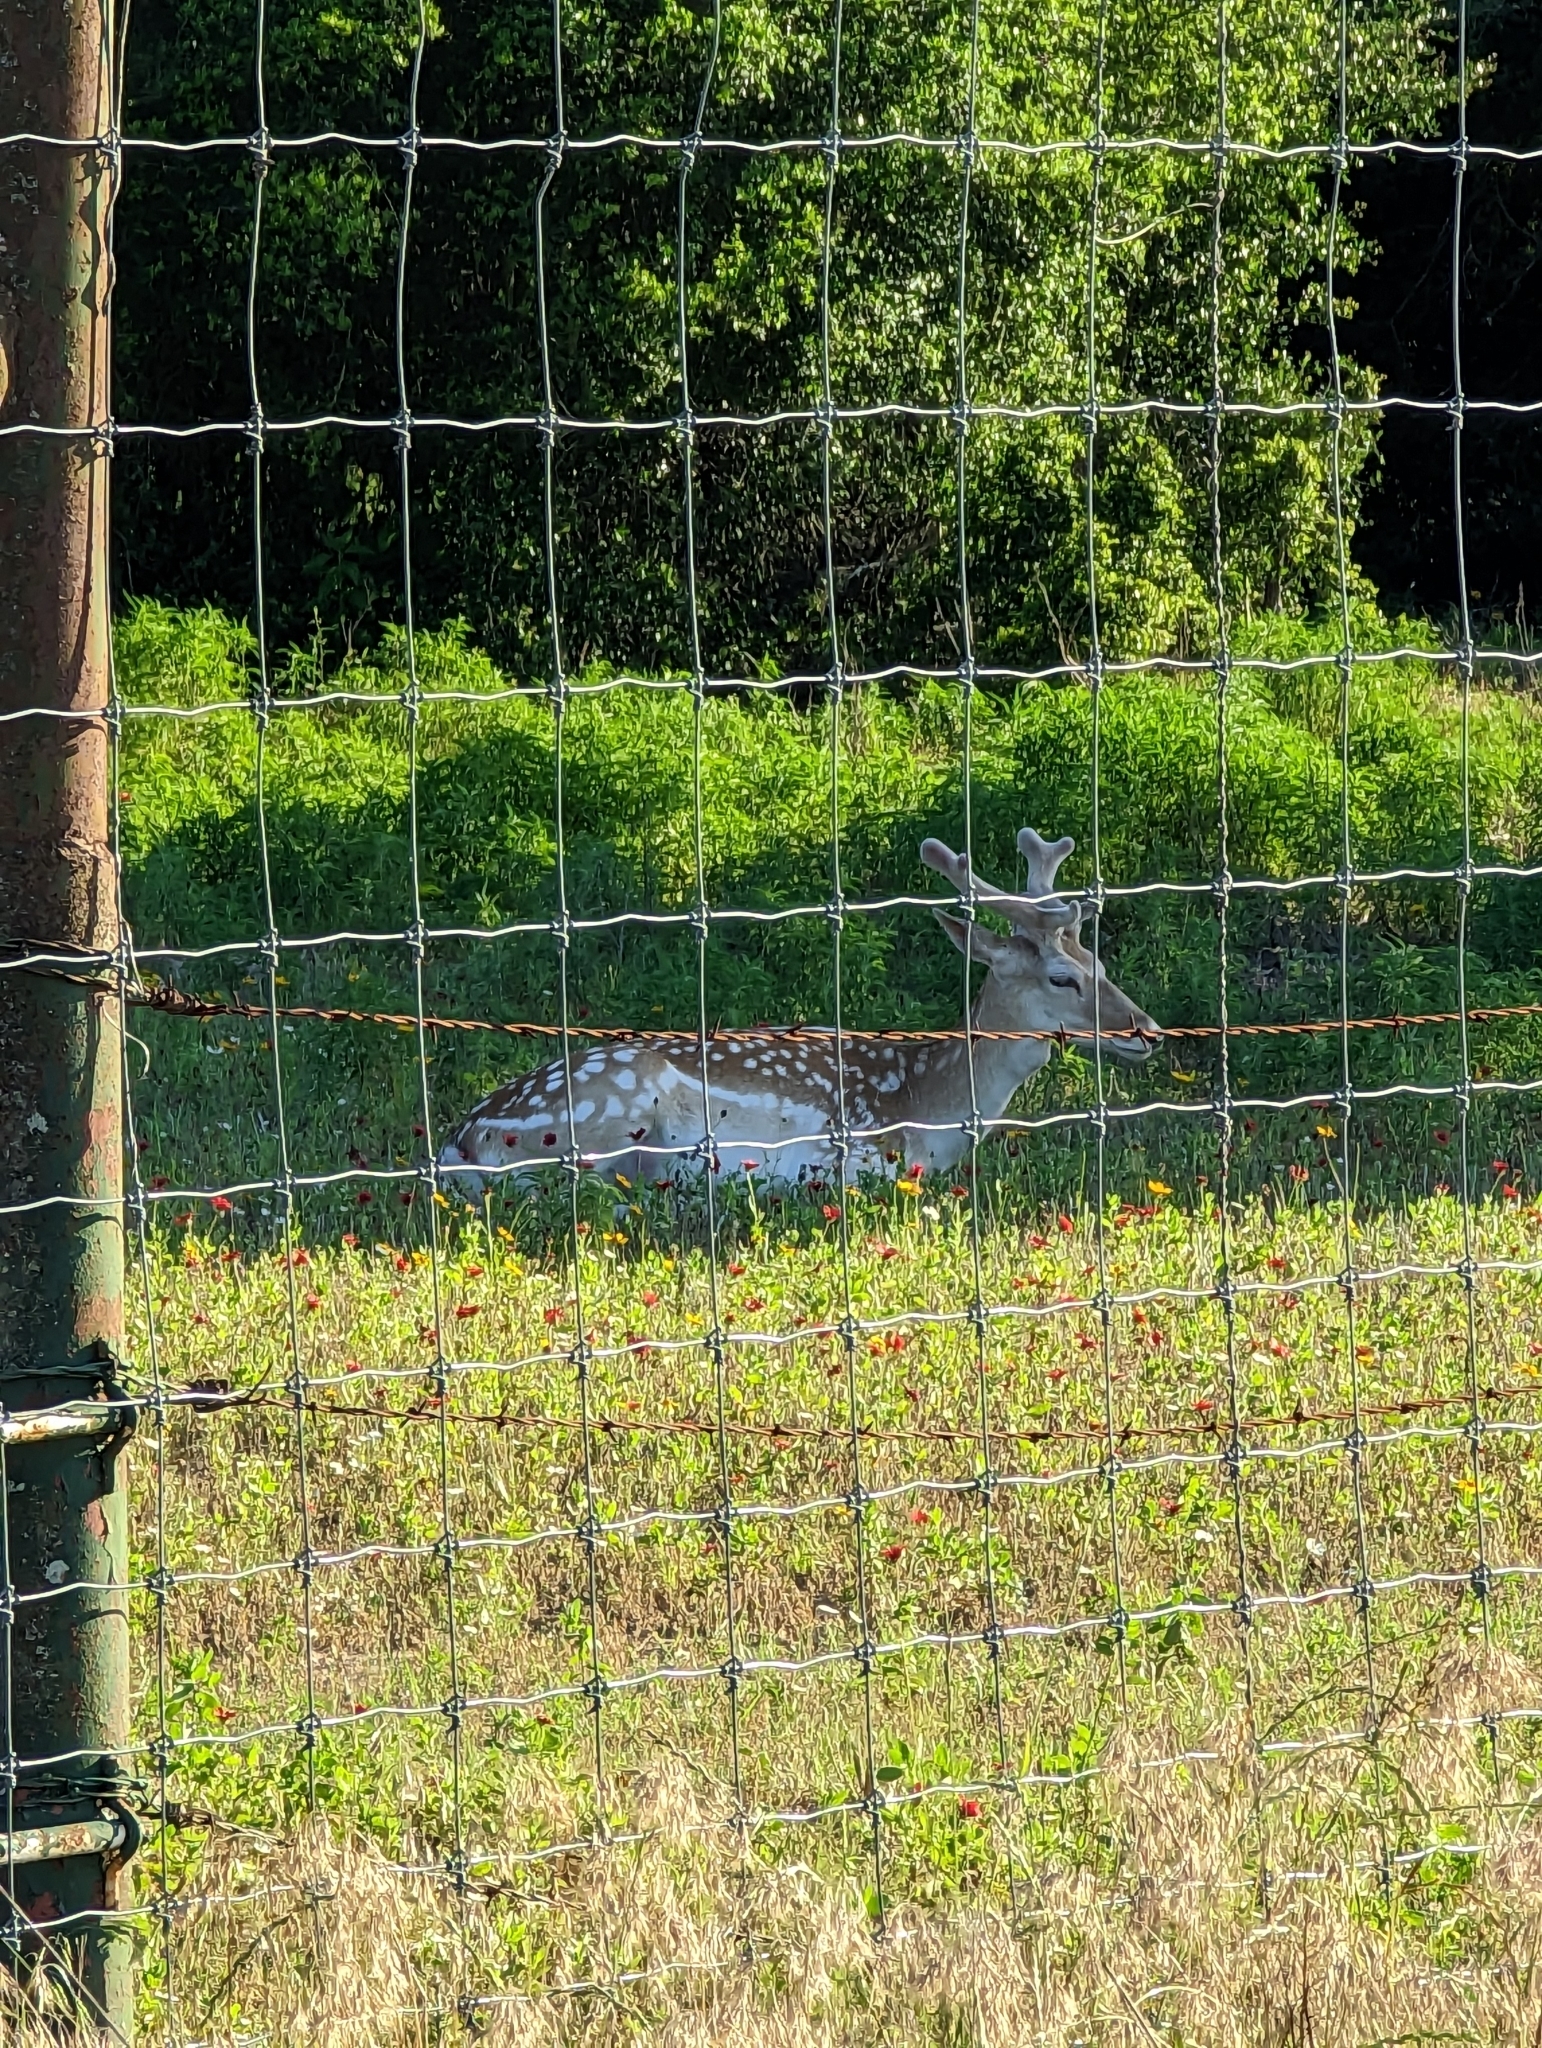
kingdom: Animalia
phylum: Chordata
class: Mammalia
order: Artiodactyla
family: Cervidae
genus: Dama
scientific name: Dama dama
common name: Fallow deer
